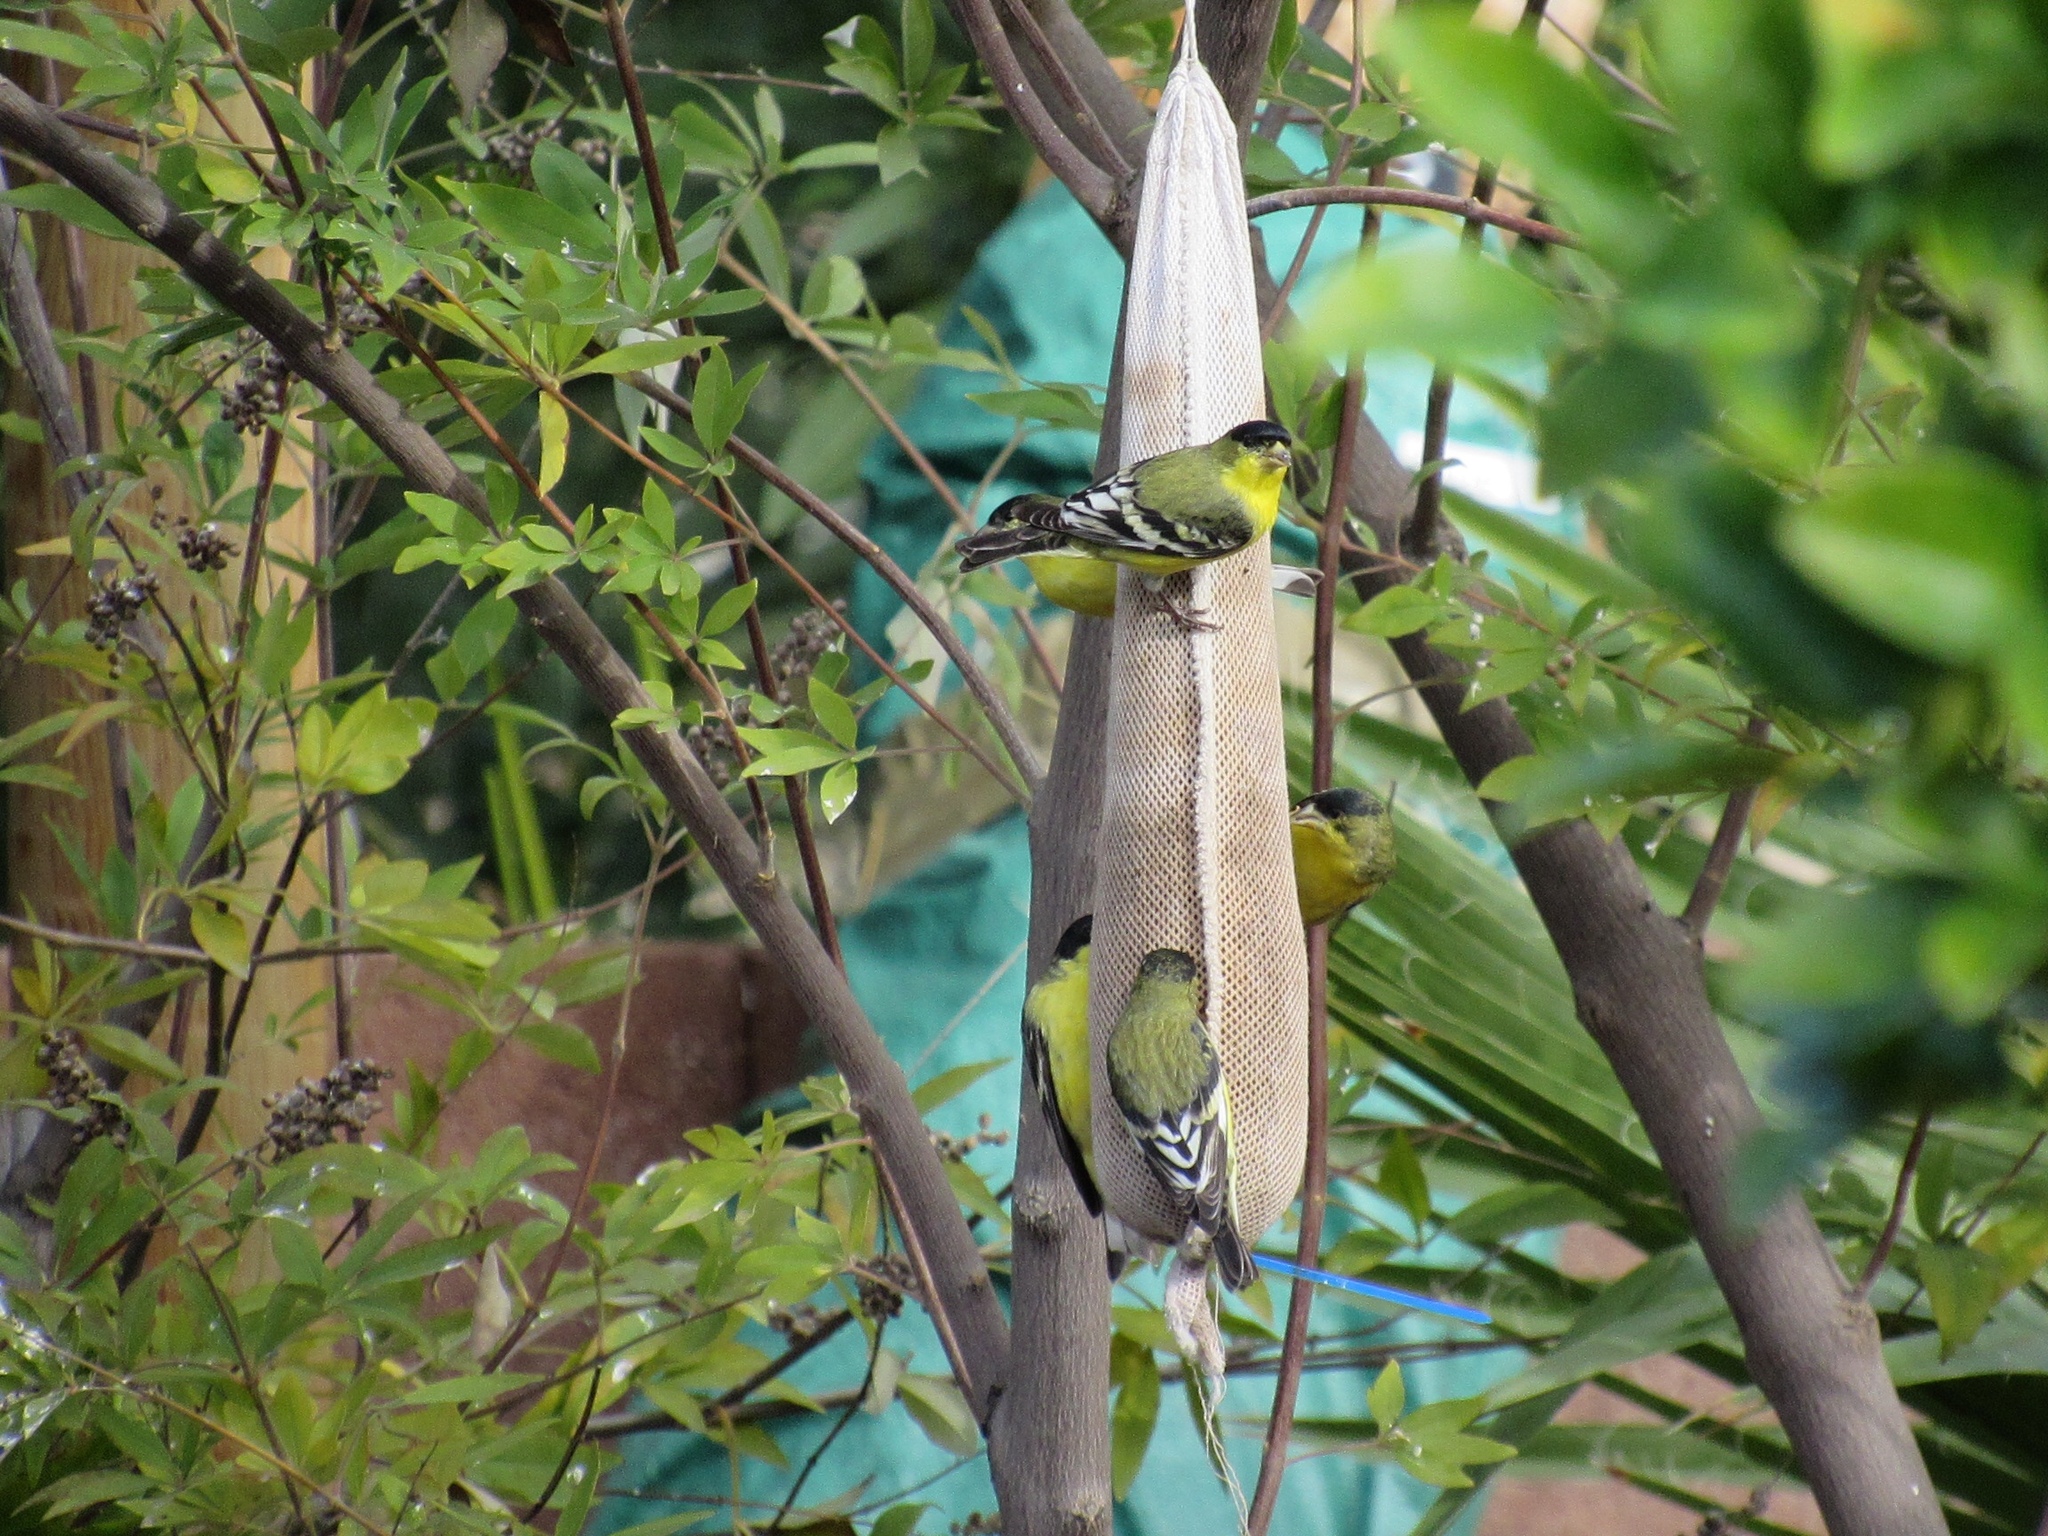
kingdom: Animalia
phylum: Chordata
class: Aves
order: Passeriformes
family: Fringillidae
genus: Spinus
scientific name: Spinus psaltria
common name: Lesser goldfinch
